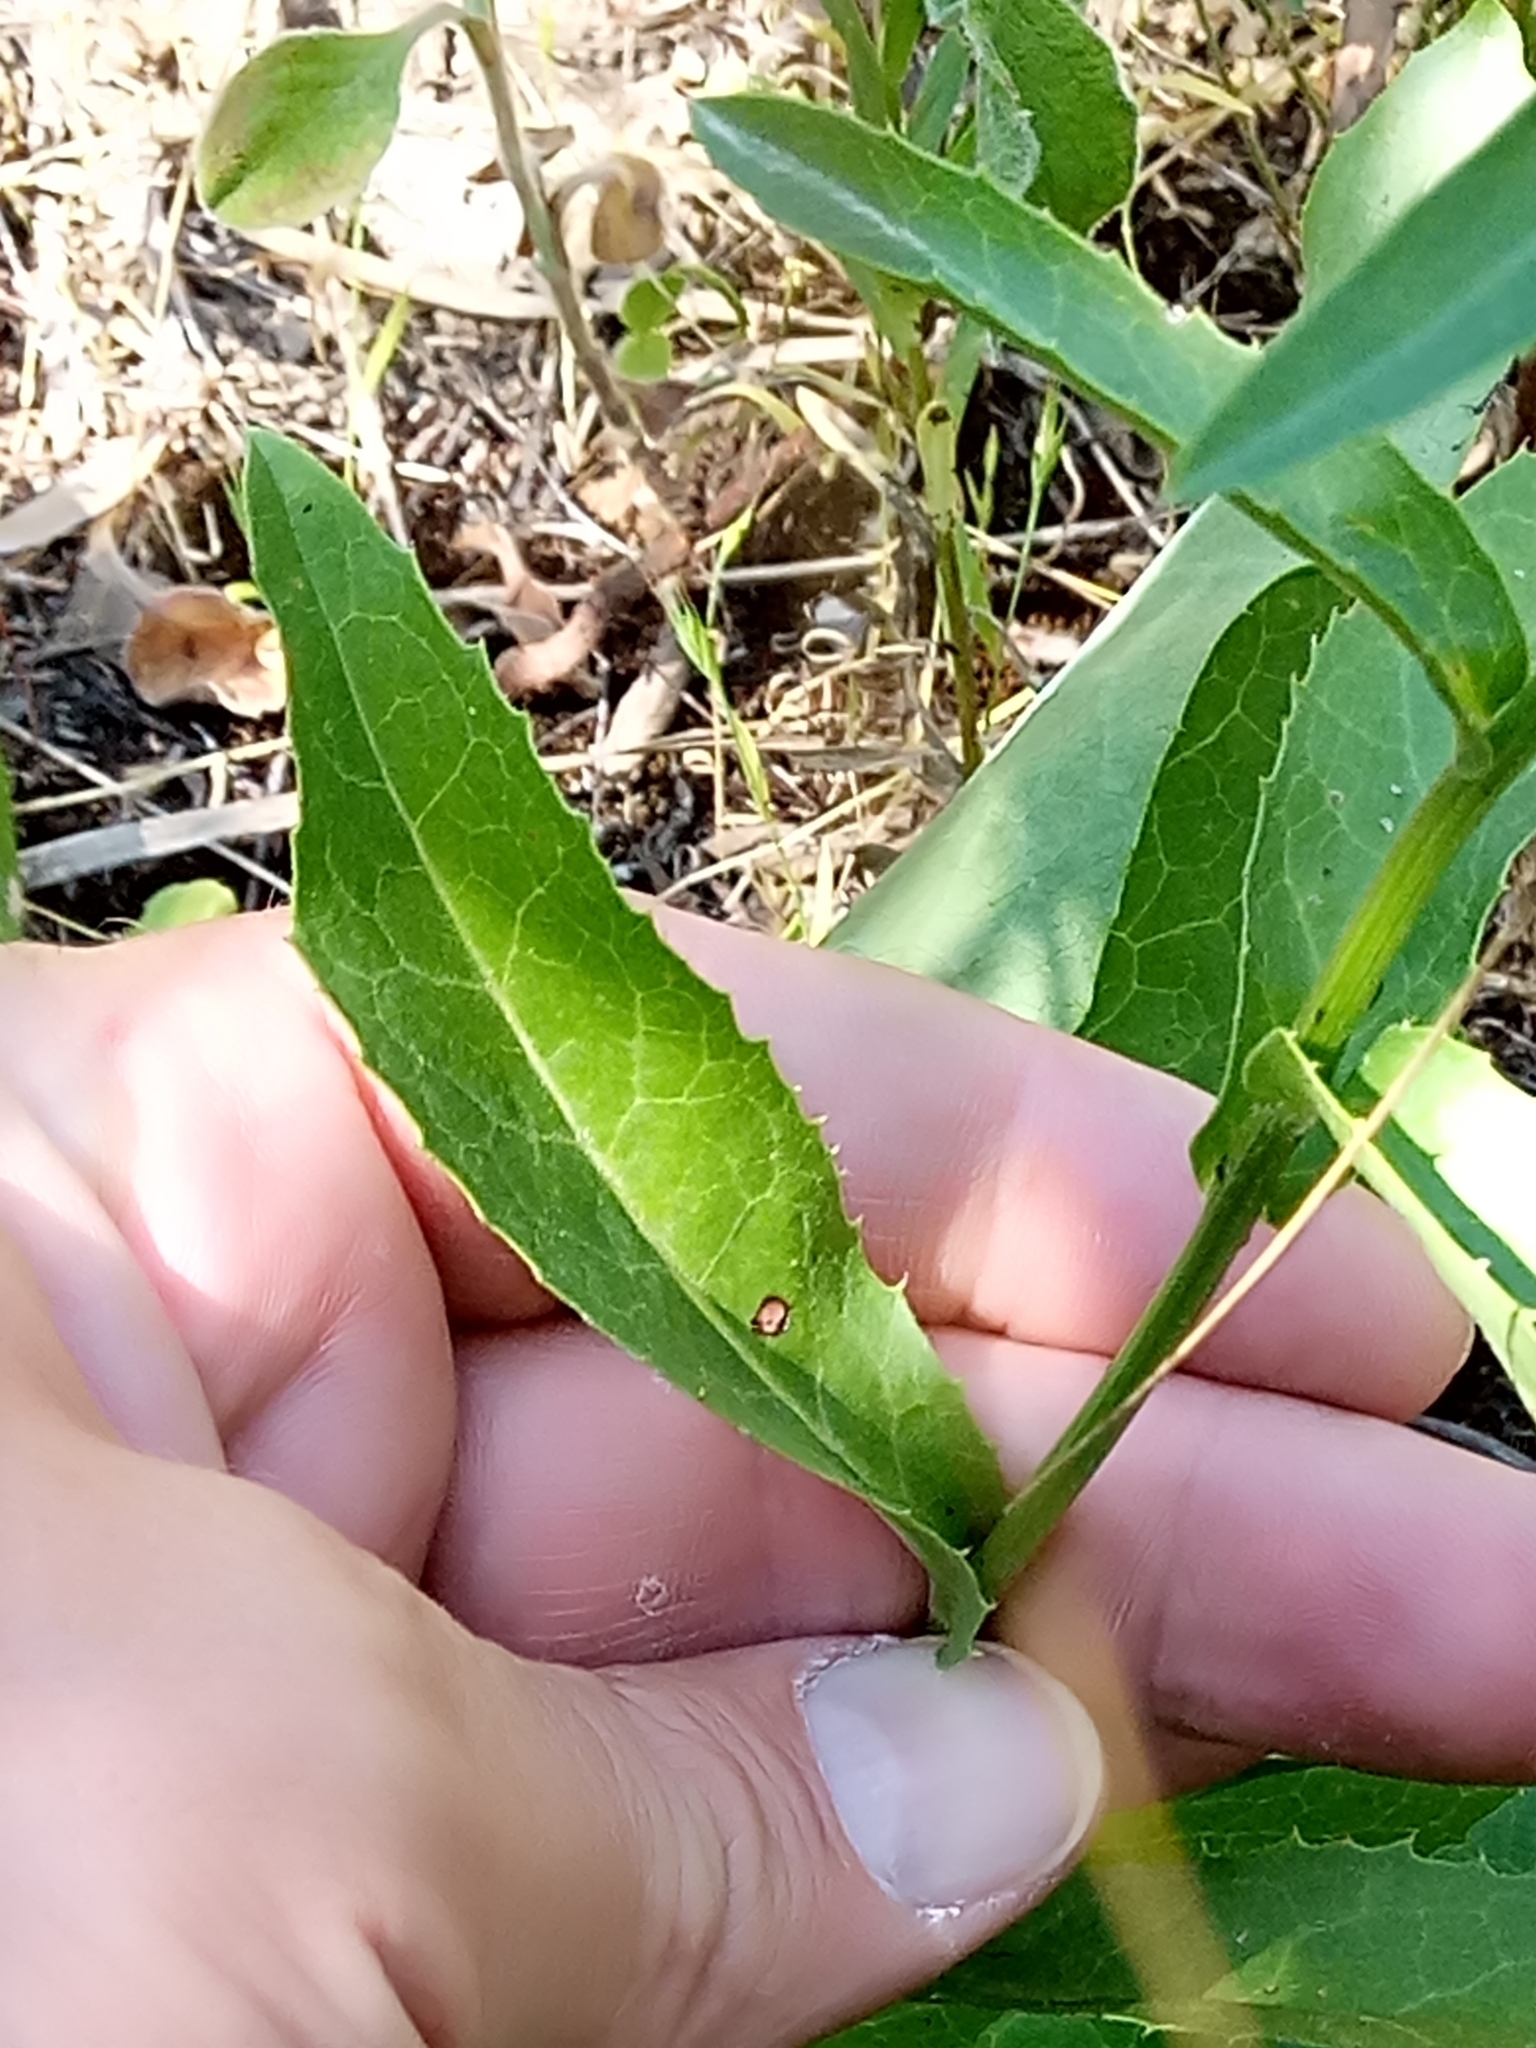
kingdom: Plantae
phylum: Tracheophyta
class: Magnoliopsida
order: Asterales
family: Asteraceae
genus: Klasea
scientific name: Klasea flavescens
